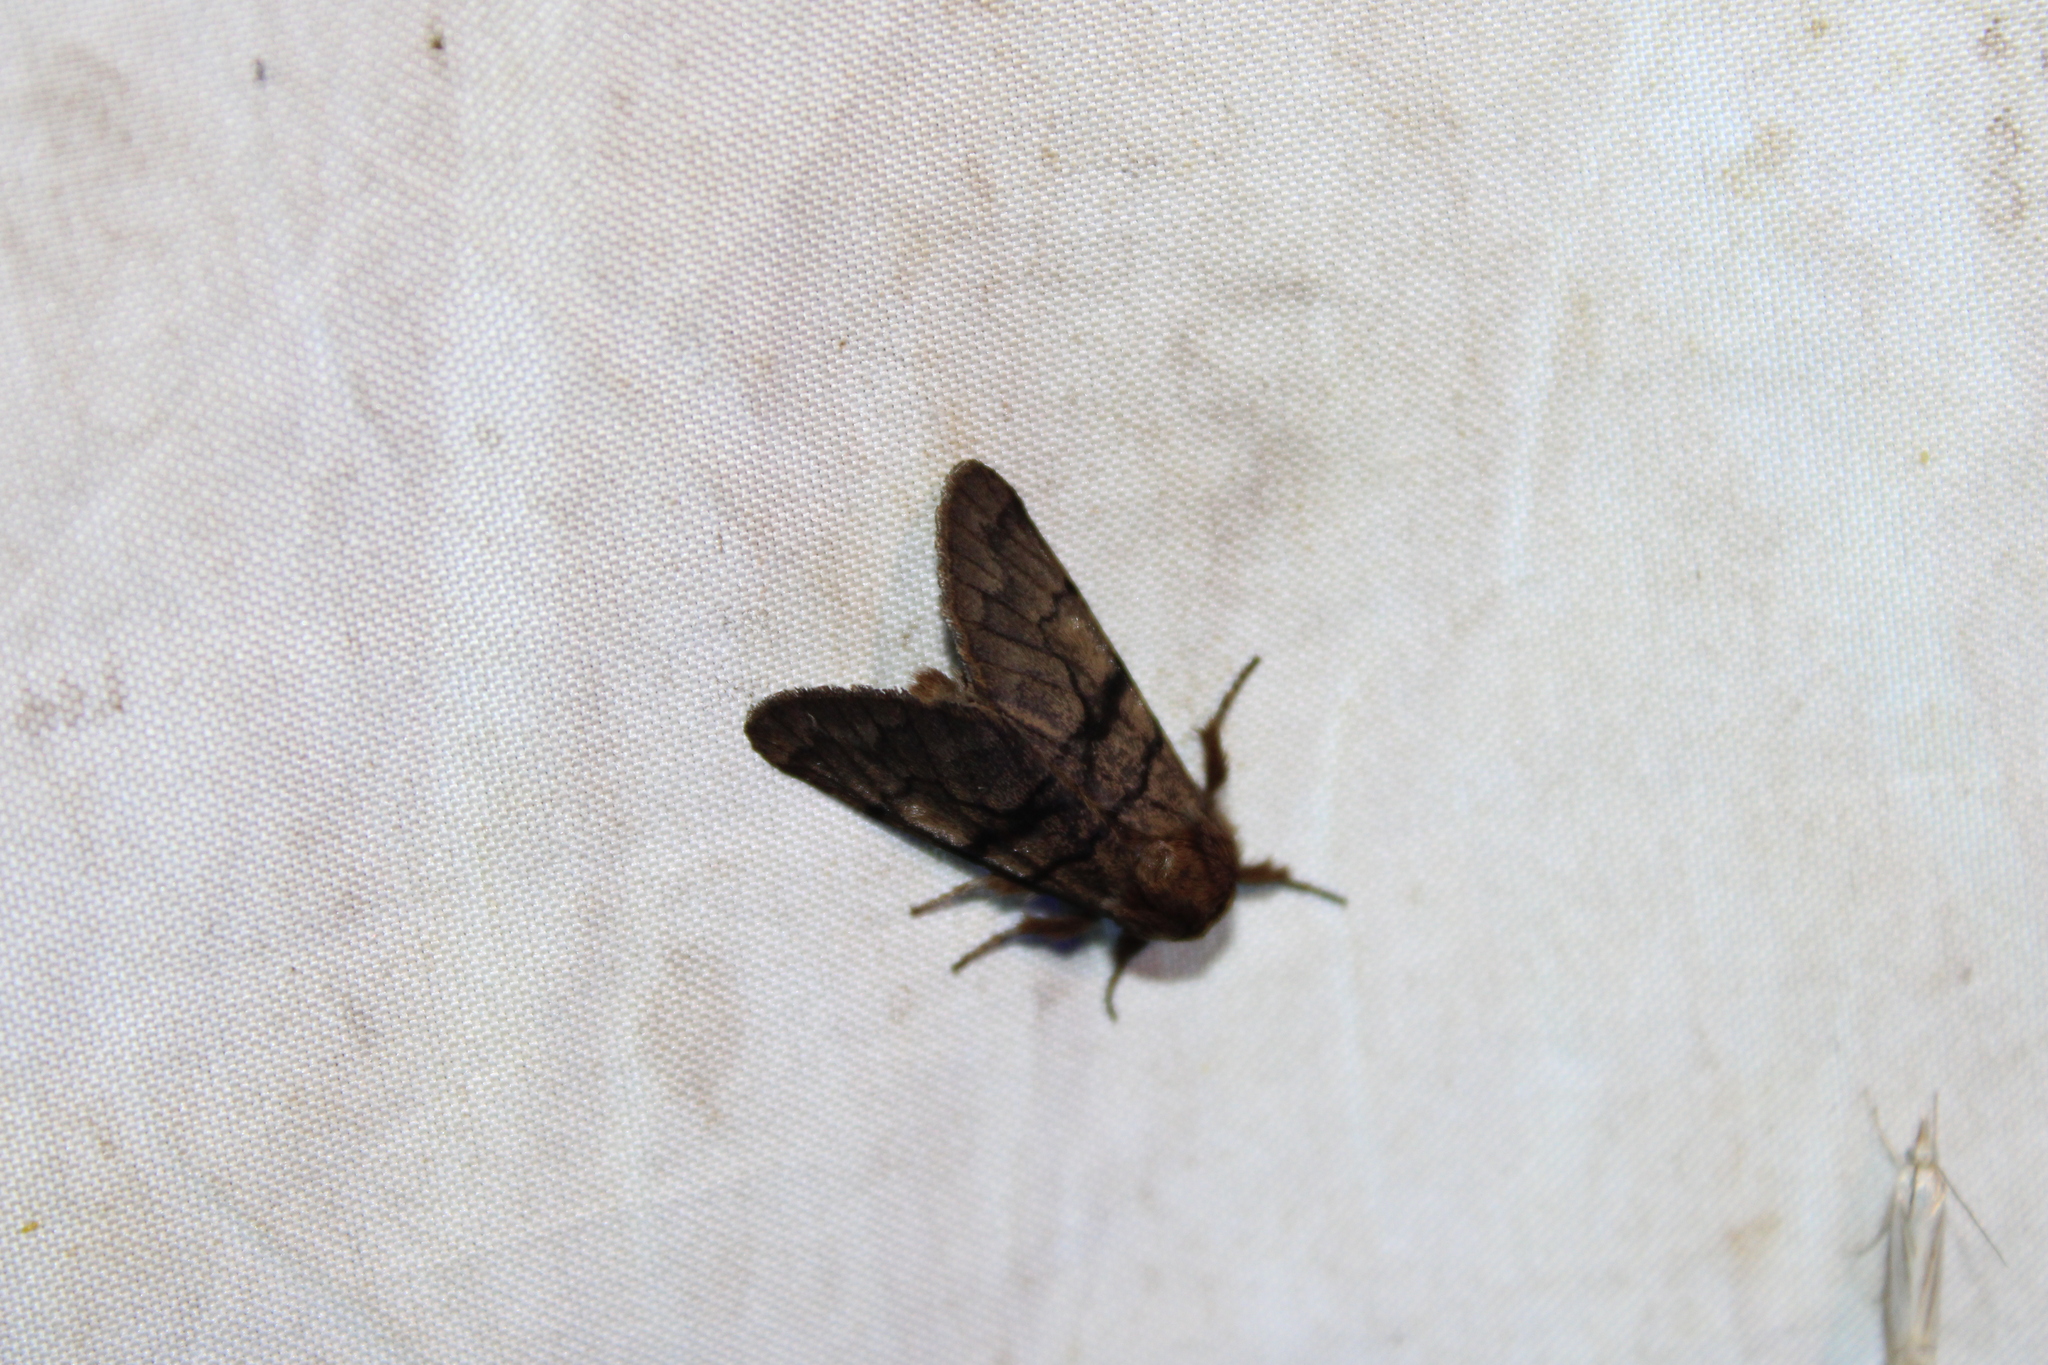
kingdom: Animalia
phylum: Arthropoda
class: Insecta
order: Lepidoptera
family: Noctuidae
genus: Panthea
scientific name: Panthea furcilla
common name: Eastern panthea moth
